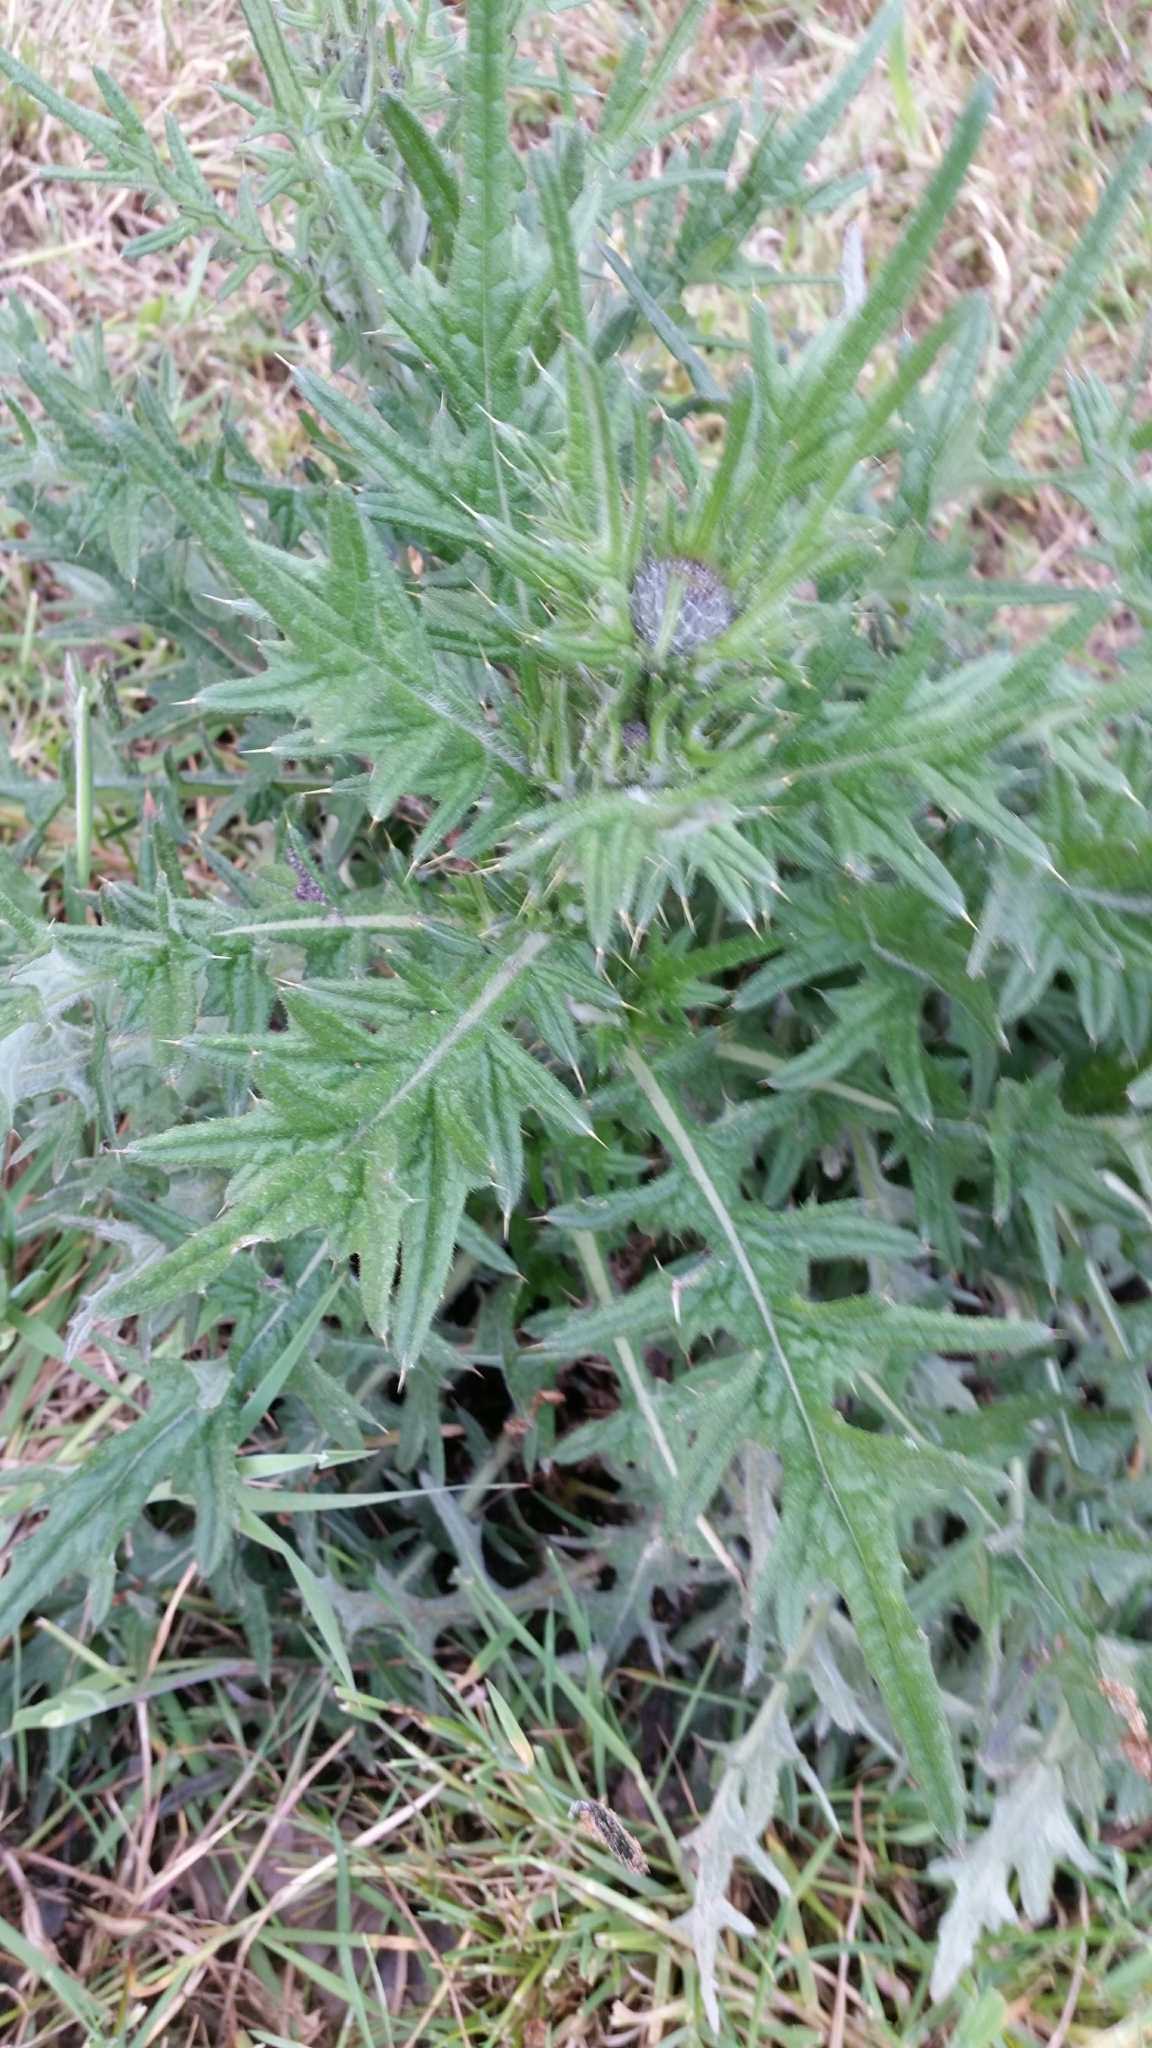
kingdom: Plantae
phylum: Tracheophyta
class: Magnoliopsida
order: Asterales
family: Asteraceae
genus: Cirsium
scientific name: Cirsium vulgare
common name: Bull thistle
